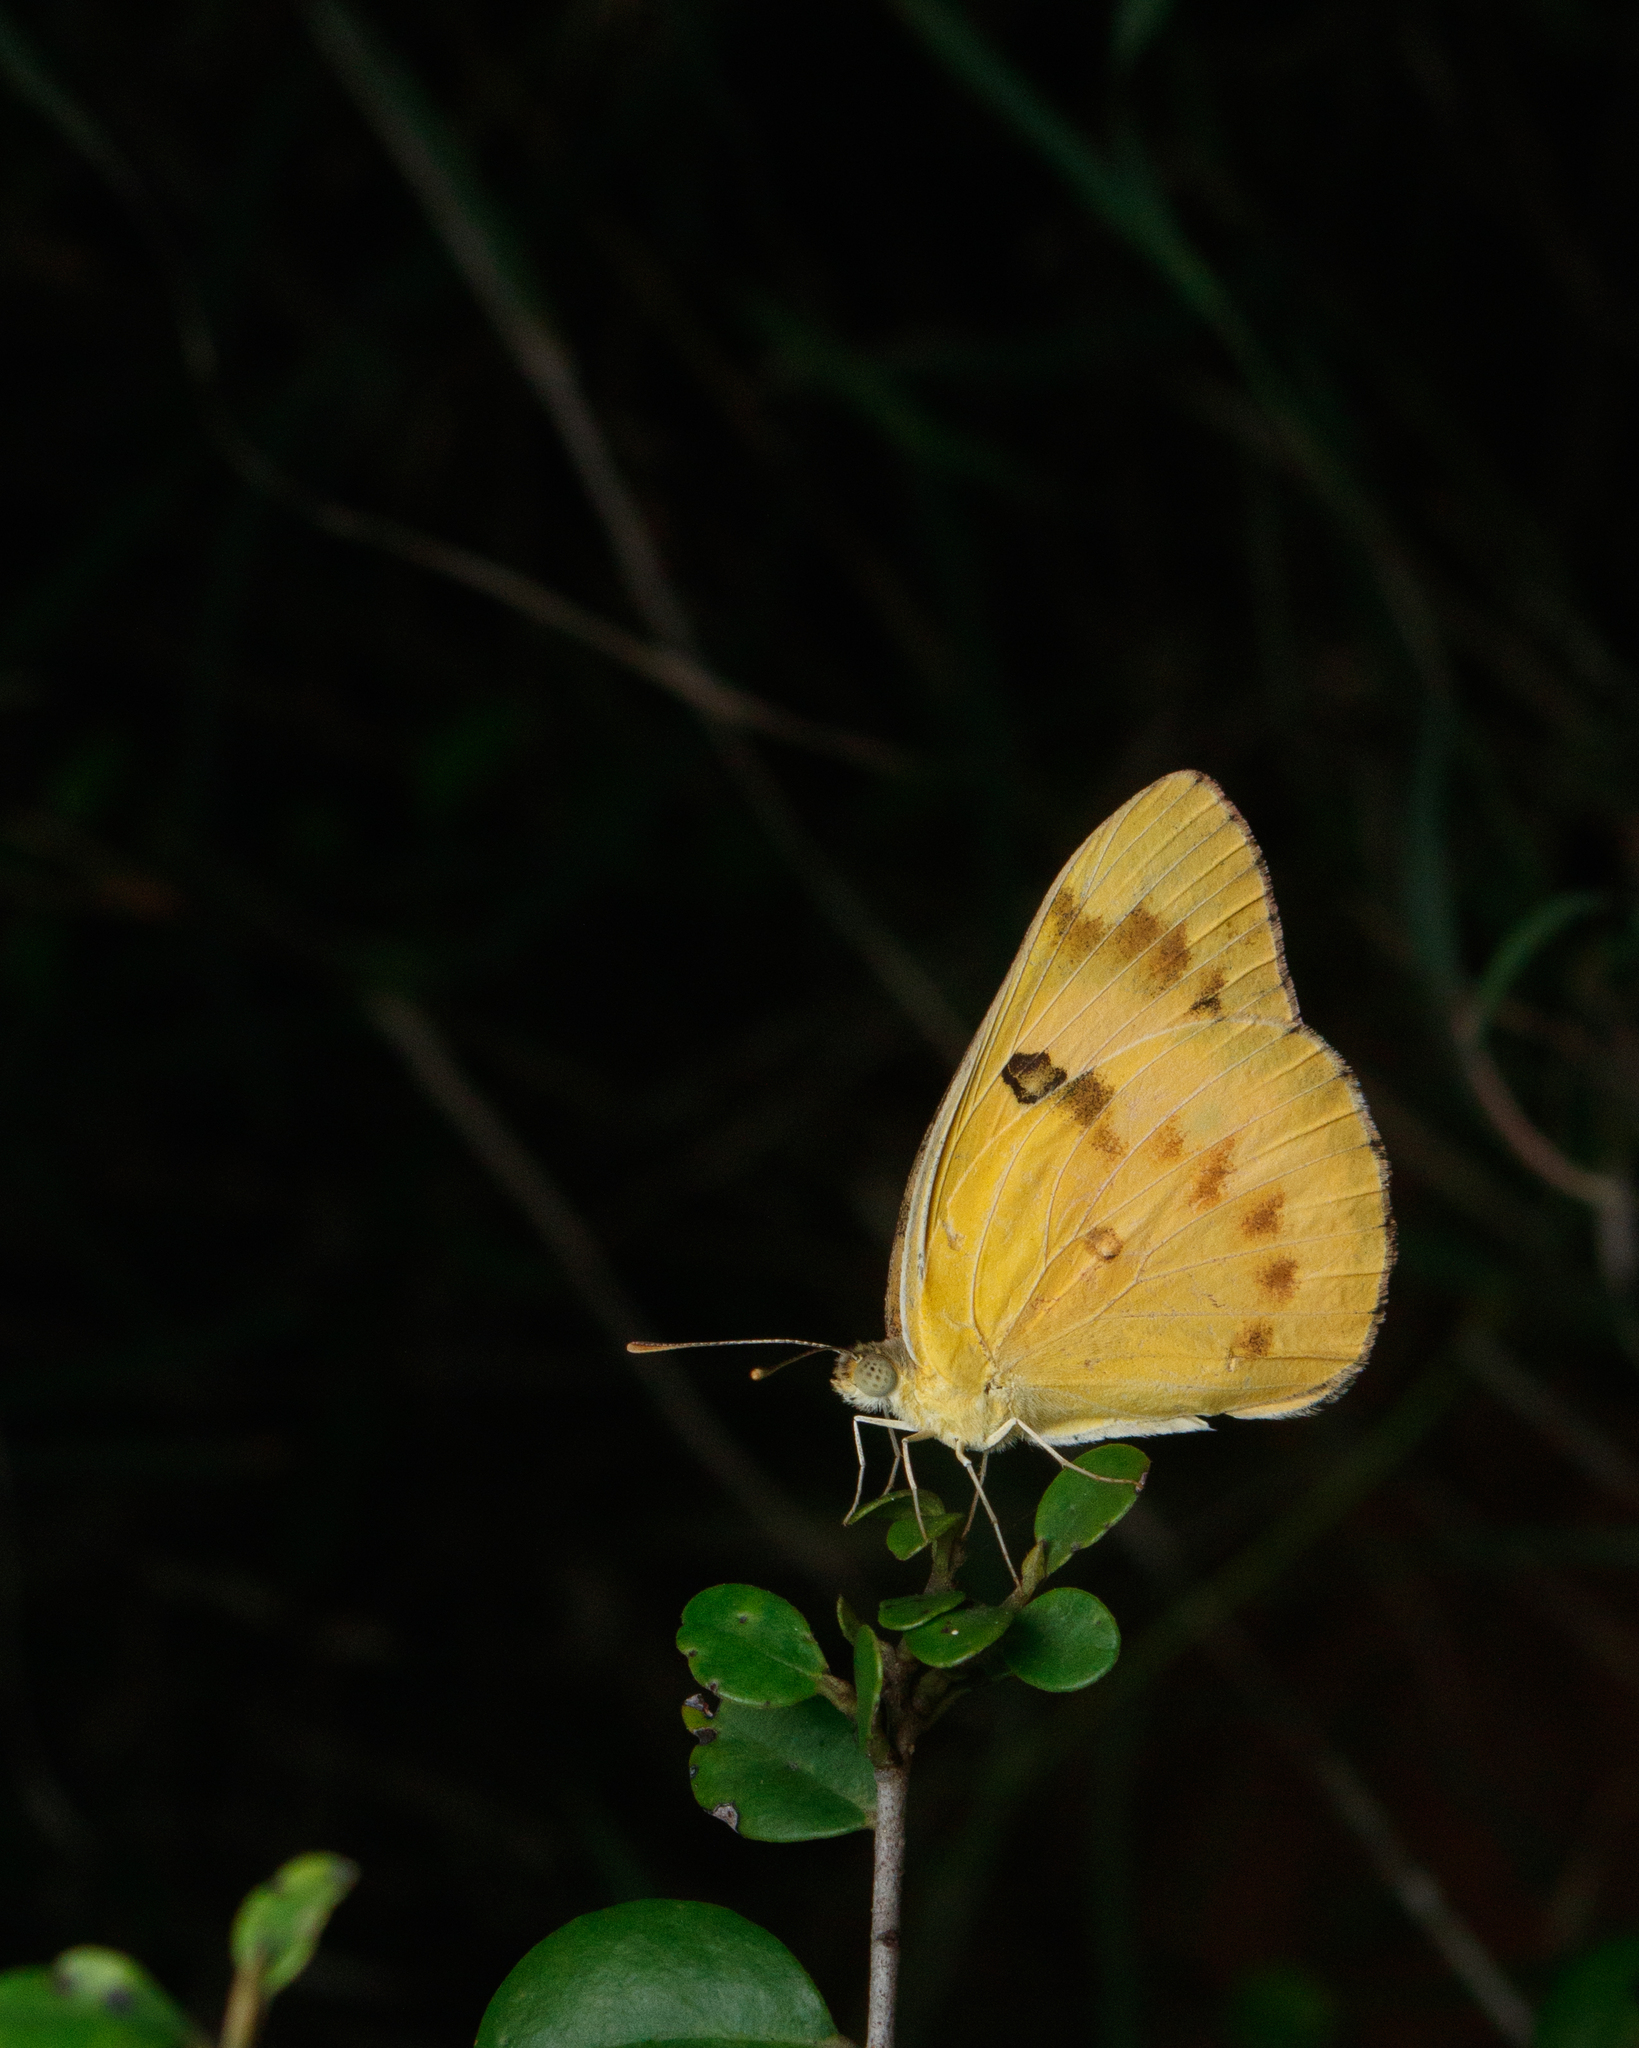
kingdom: Animalia
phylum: Arthropoda
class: Insecta
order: Lepidoptera
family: Pieridae
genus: Colotis
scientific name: Colotis fausta
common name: Large salmon arab
